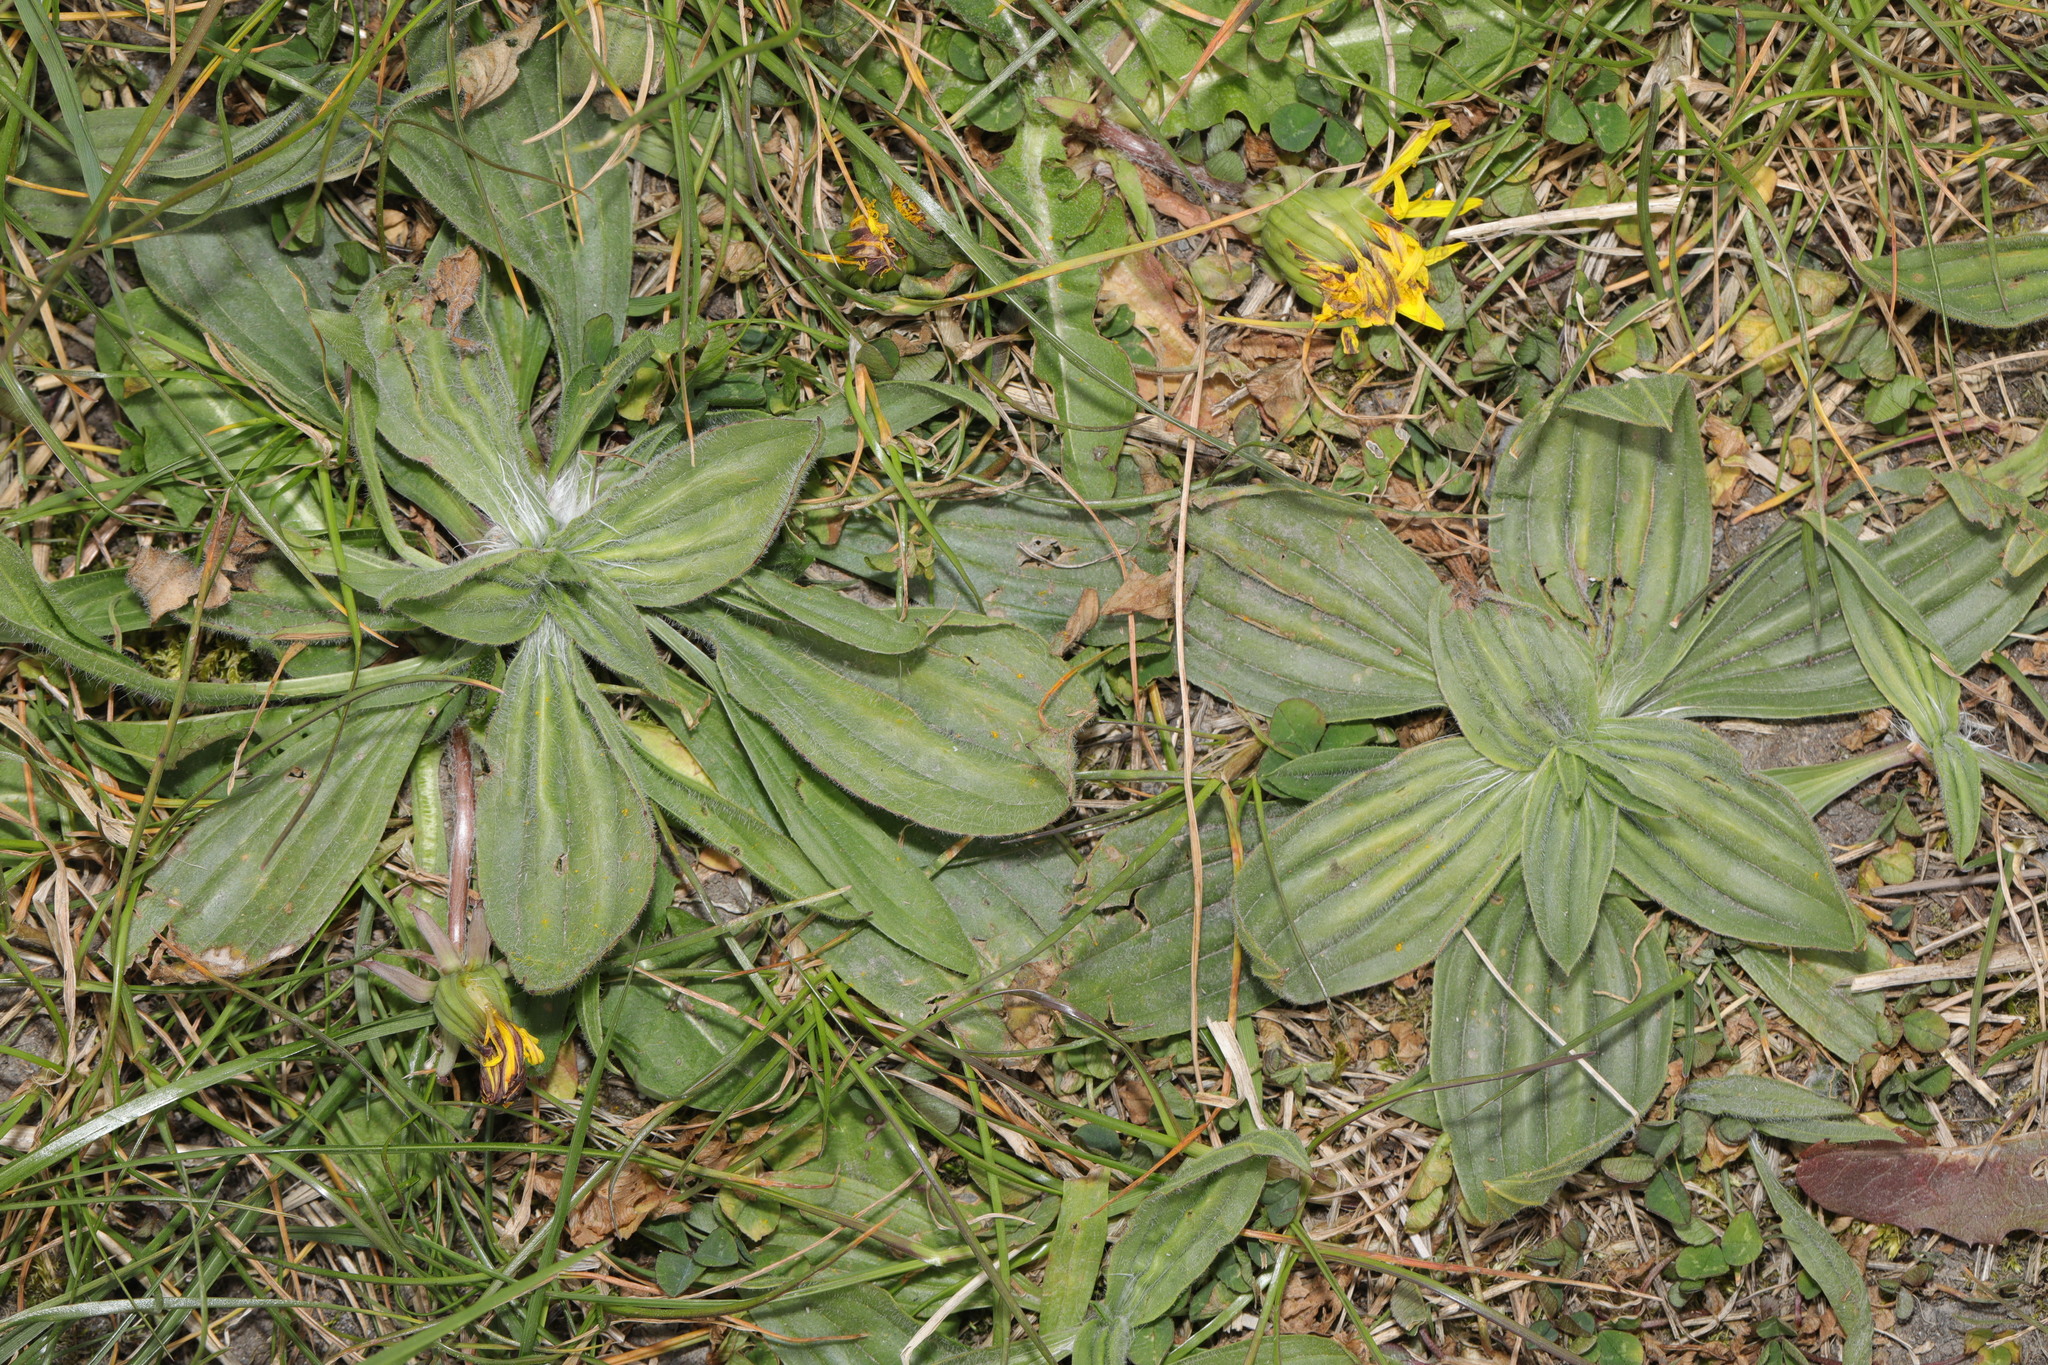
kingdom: Plantae
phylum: Tracheophyta
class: Magnoliopsida
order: Lamiales
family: Plantaginaceae
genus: Plantago
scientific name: Plantago media
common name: Hoary plantain
